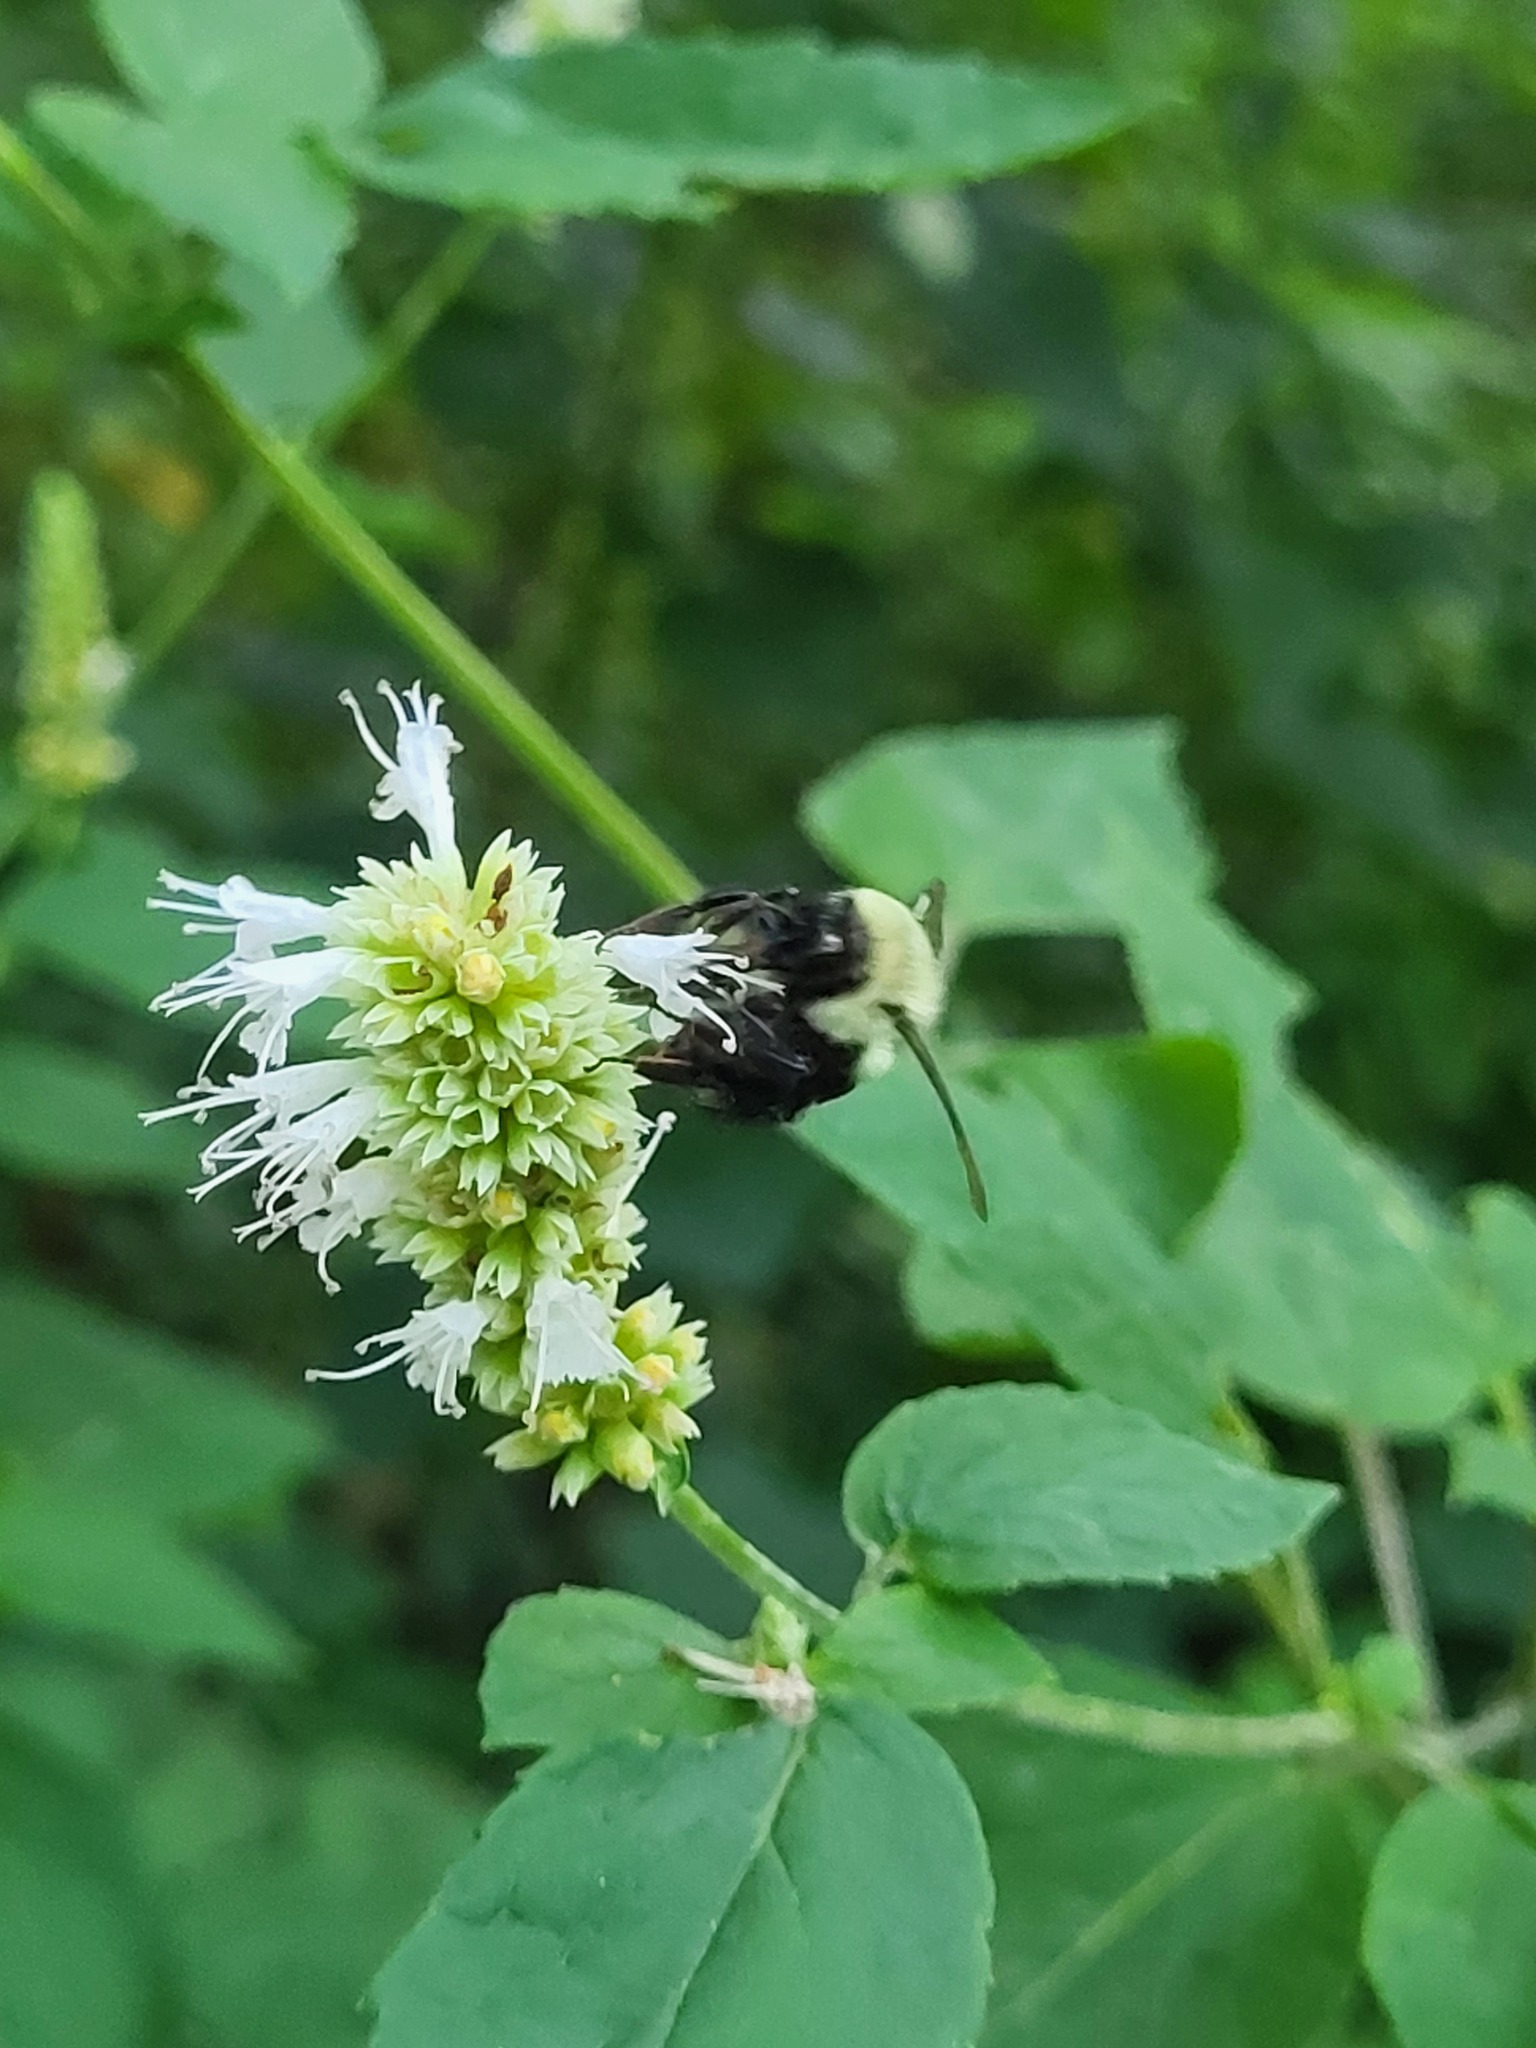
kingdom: Animalia
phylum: Arthropoda
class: Insecta
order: Hymenoptera
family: Apidae
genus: Bombus
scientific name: Bombus impatiens
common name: Common eastern bumble bee
